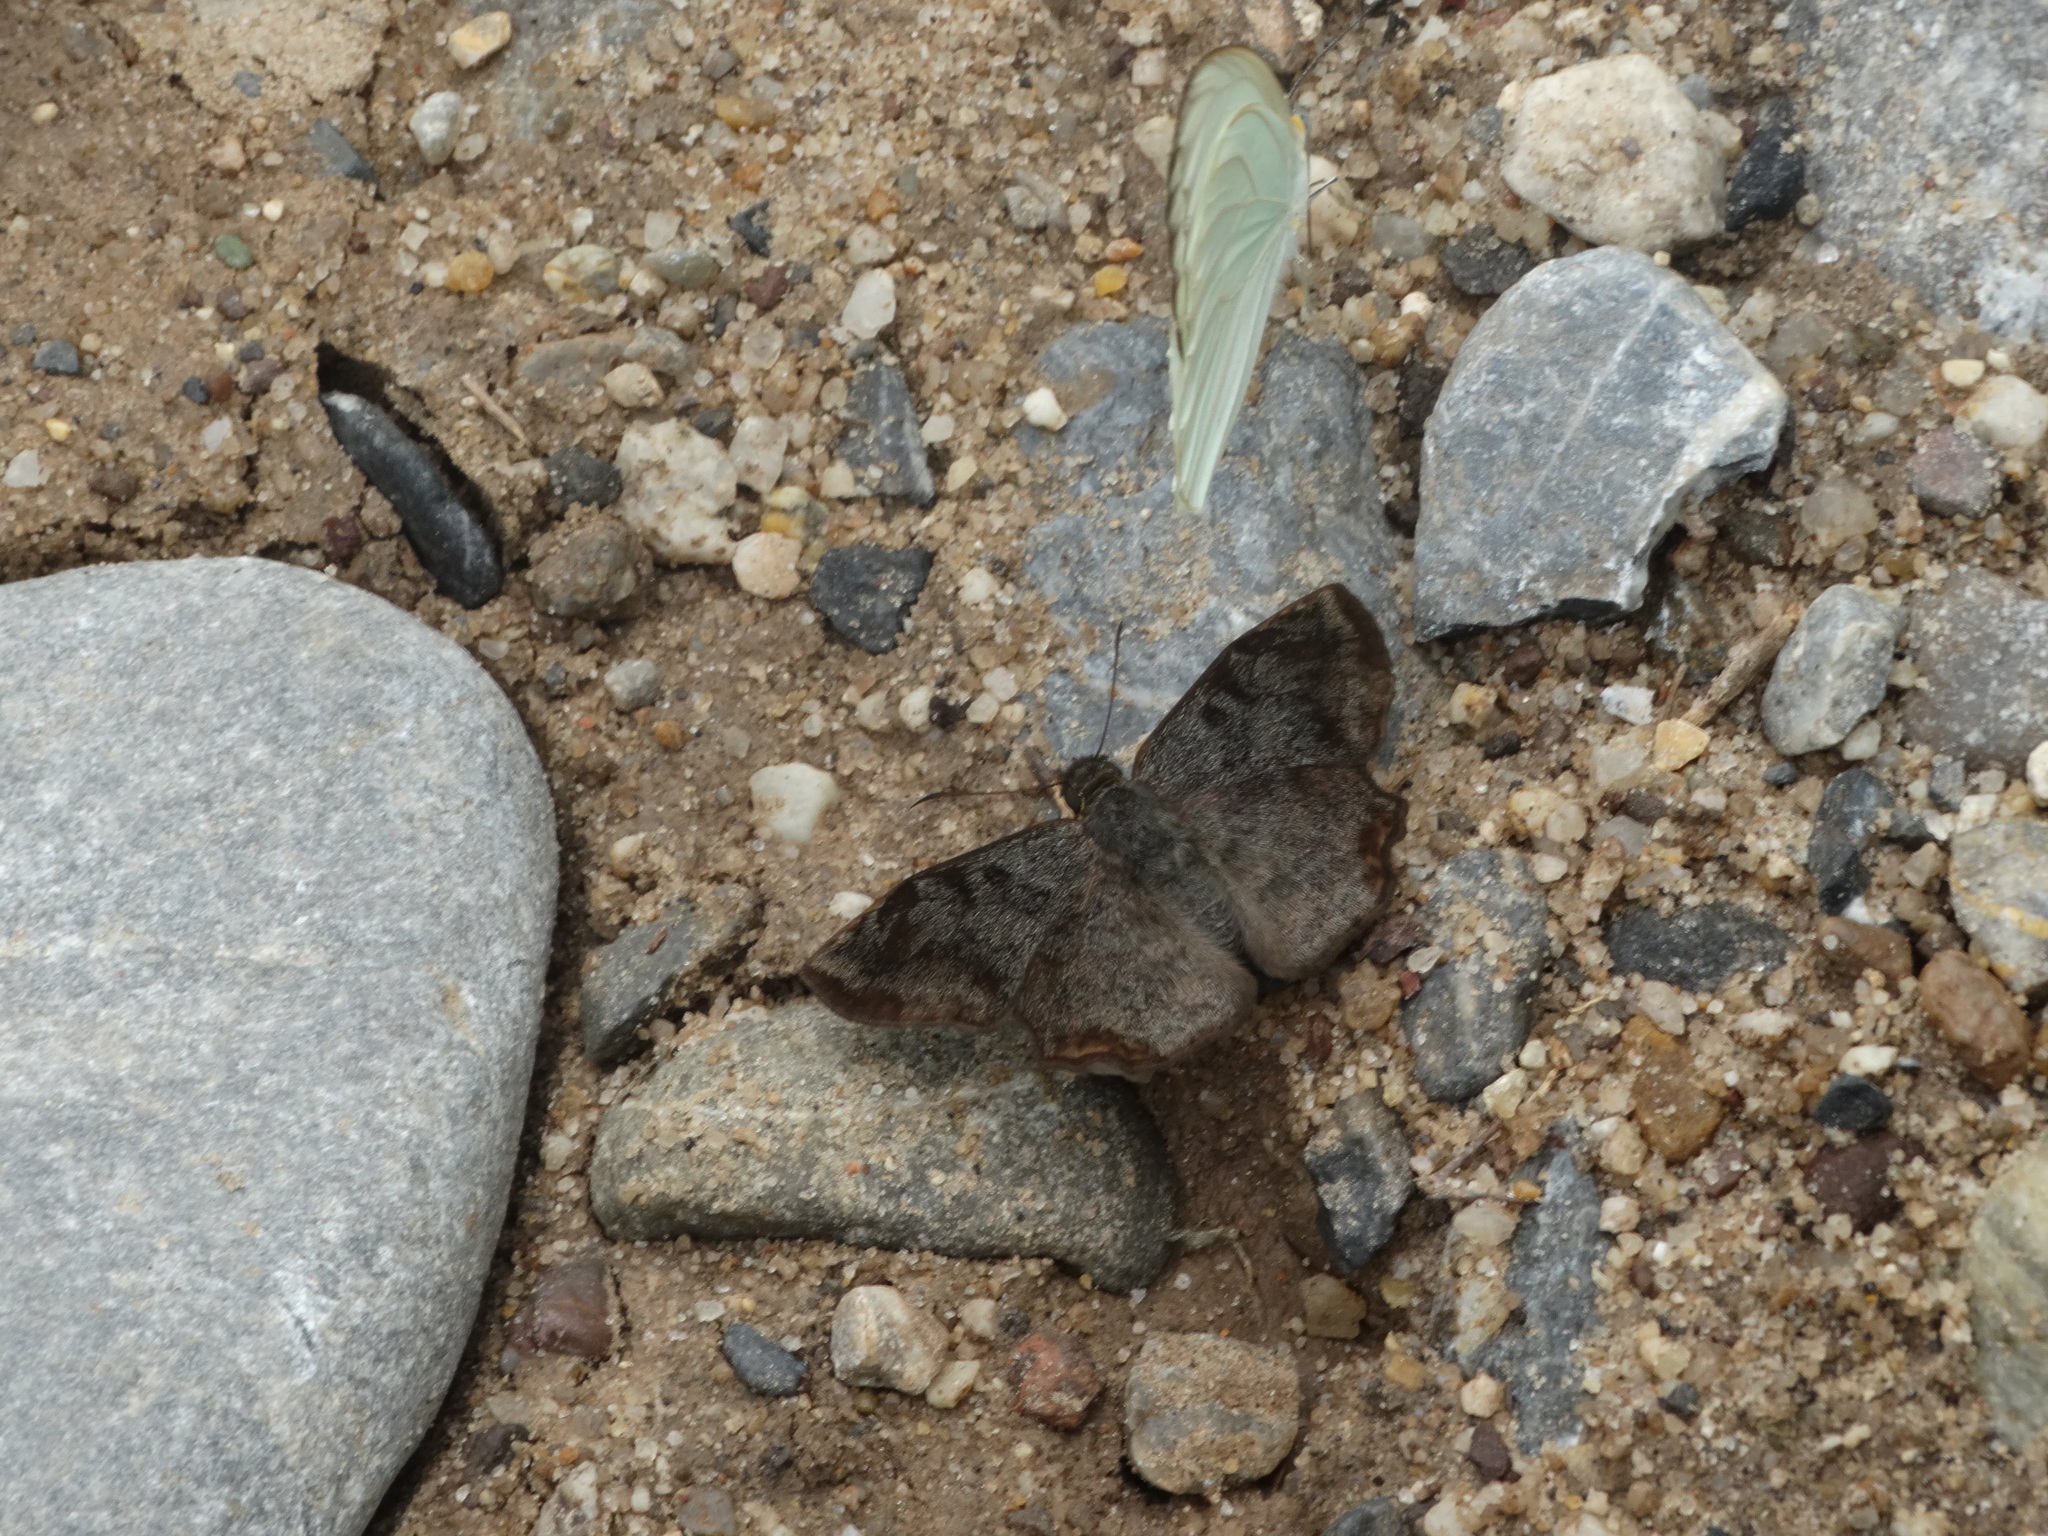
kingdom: Animalia
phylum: Arthropoda
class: Insecta
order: Lepidoptera
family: Hesperiidae
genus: Antigonus
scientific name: Antigonus erosus
